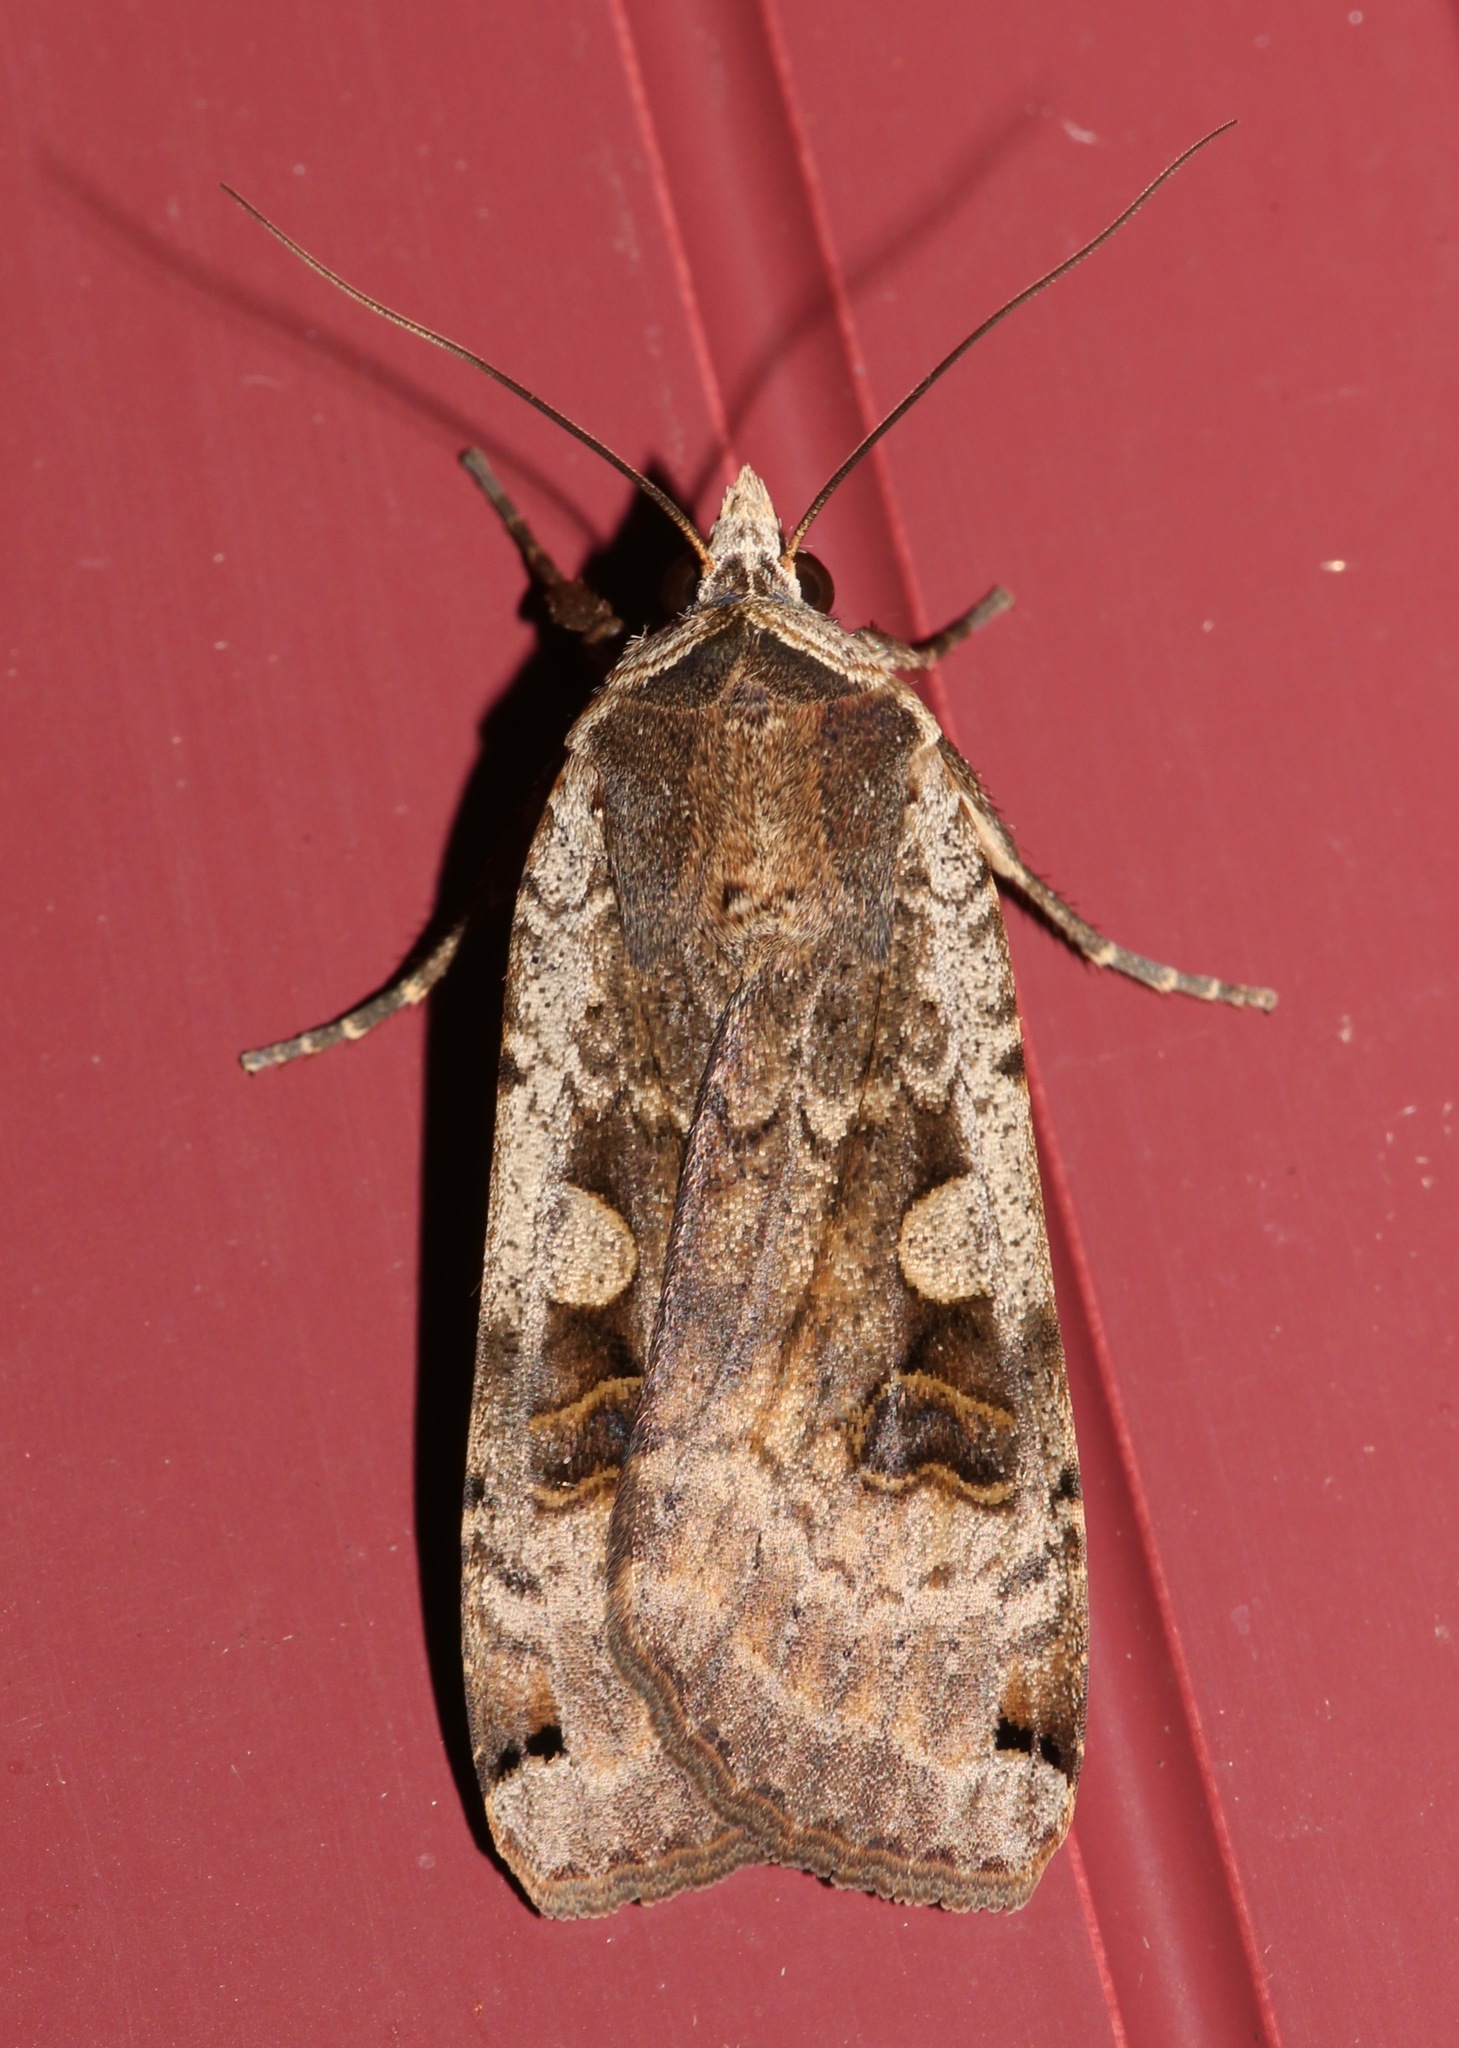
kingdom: Animalia
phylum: Arthropoda
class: Insecta
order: Lepidoptera
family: Noctuidae
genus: Noctua
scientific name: Noctua pronuba
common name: Large yellow underwing
